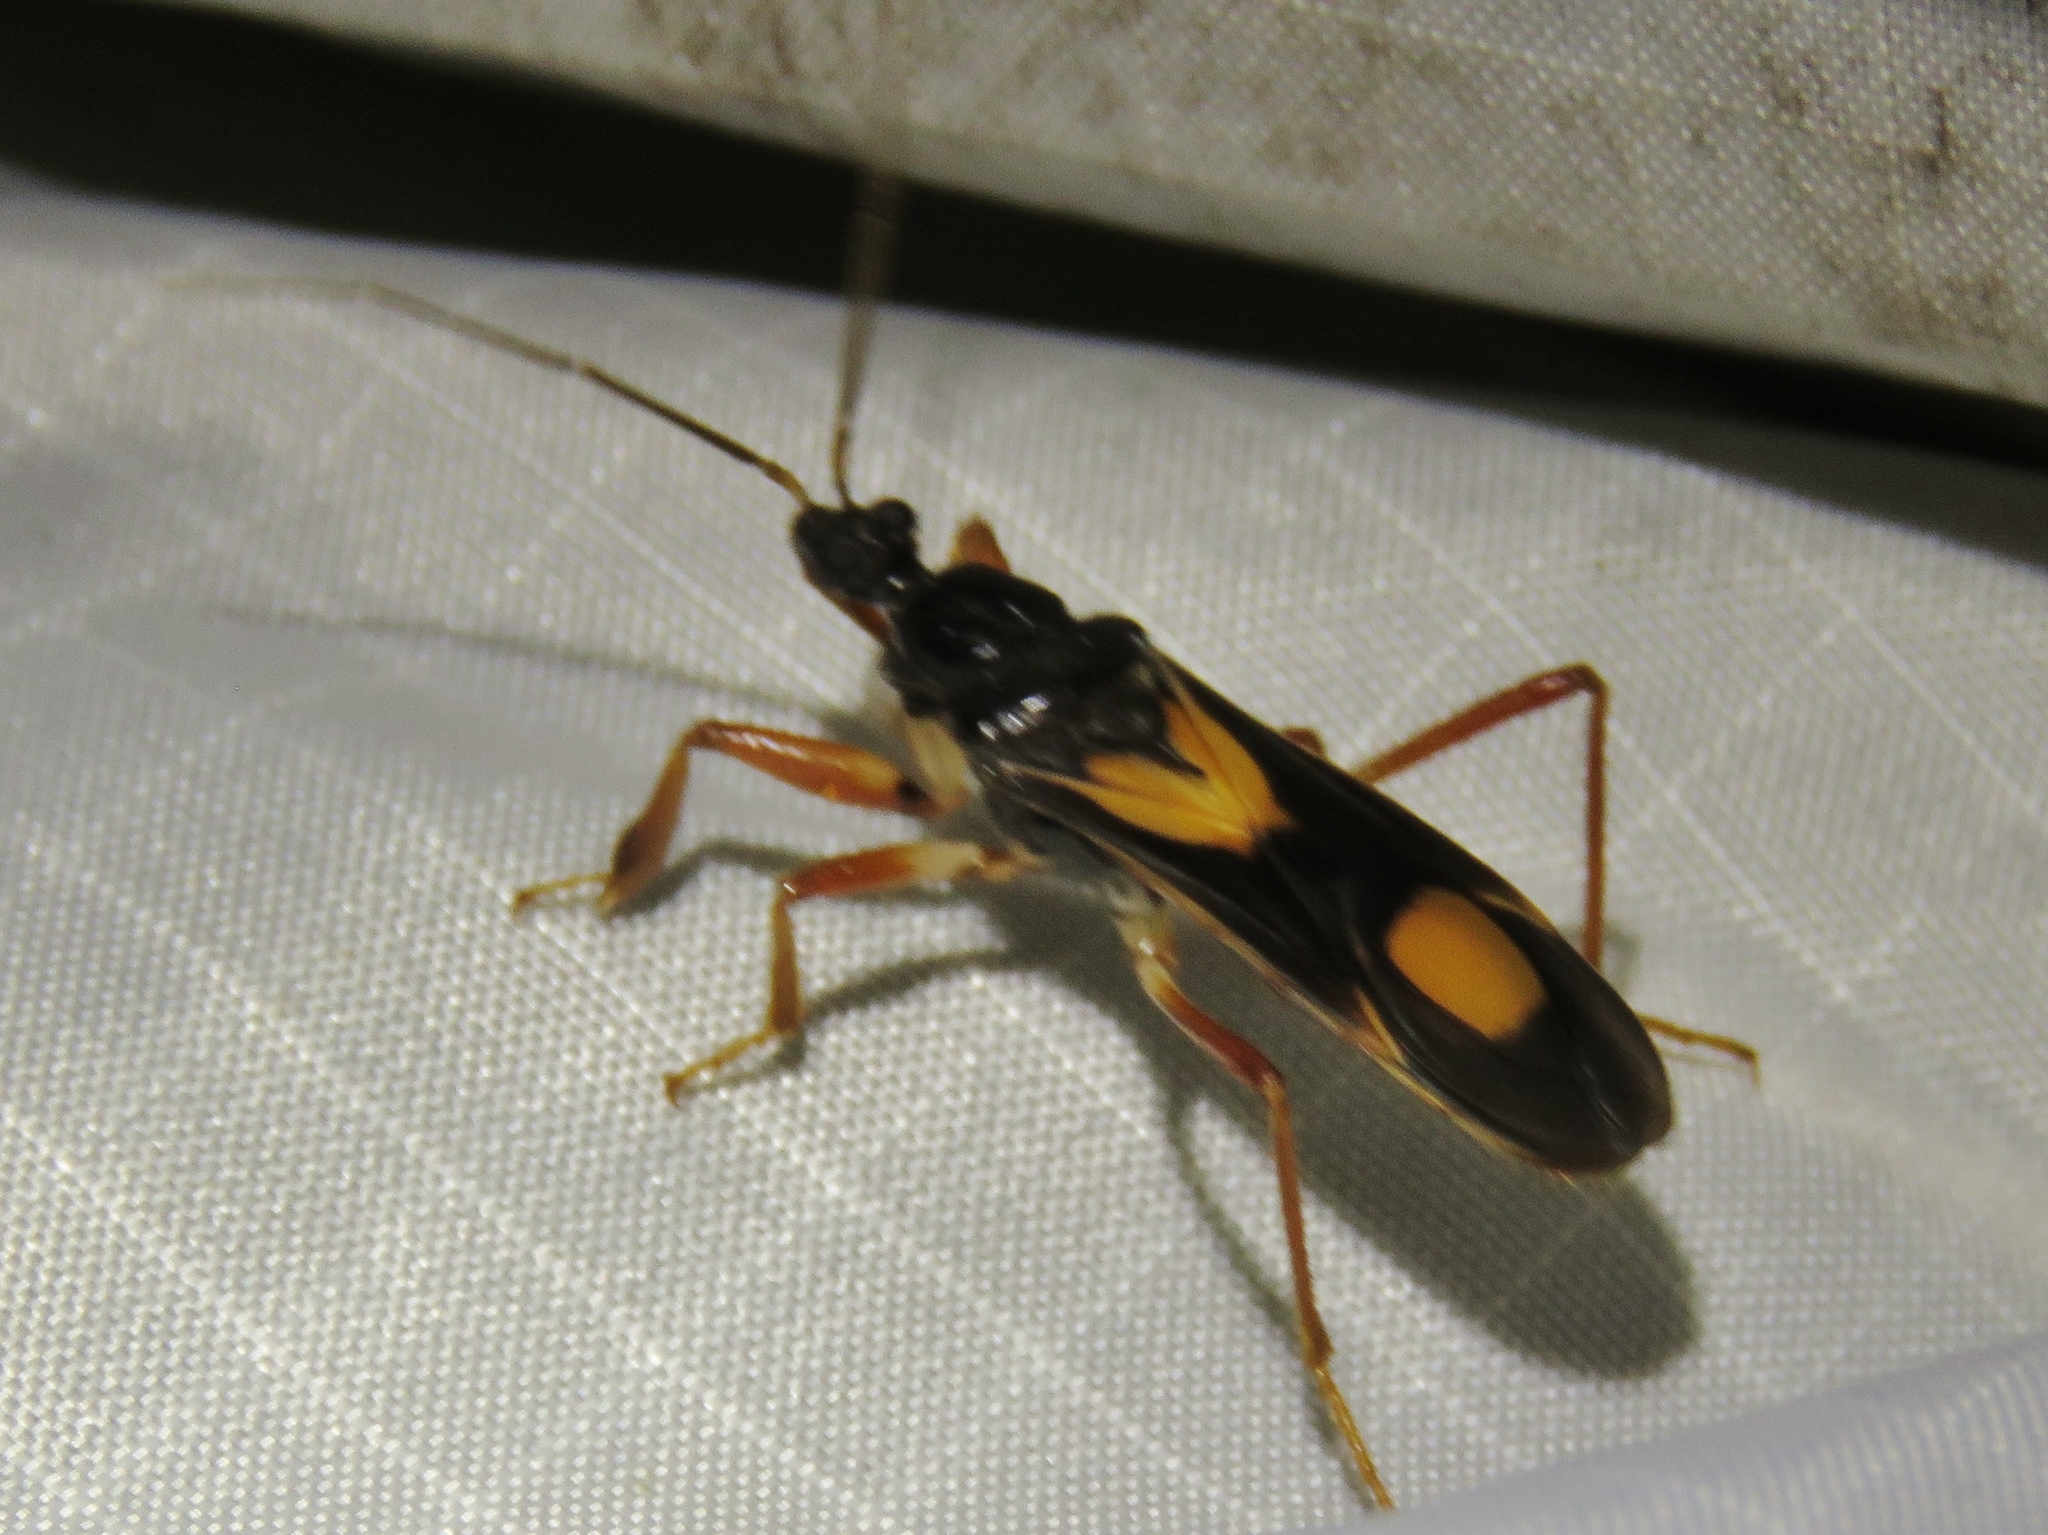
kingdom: Animalia
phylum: Arthropoda
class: Insecta
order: Hemiptera
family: Reduviidae
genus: Rasahus
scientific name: Rasahus hamatus
